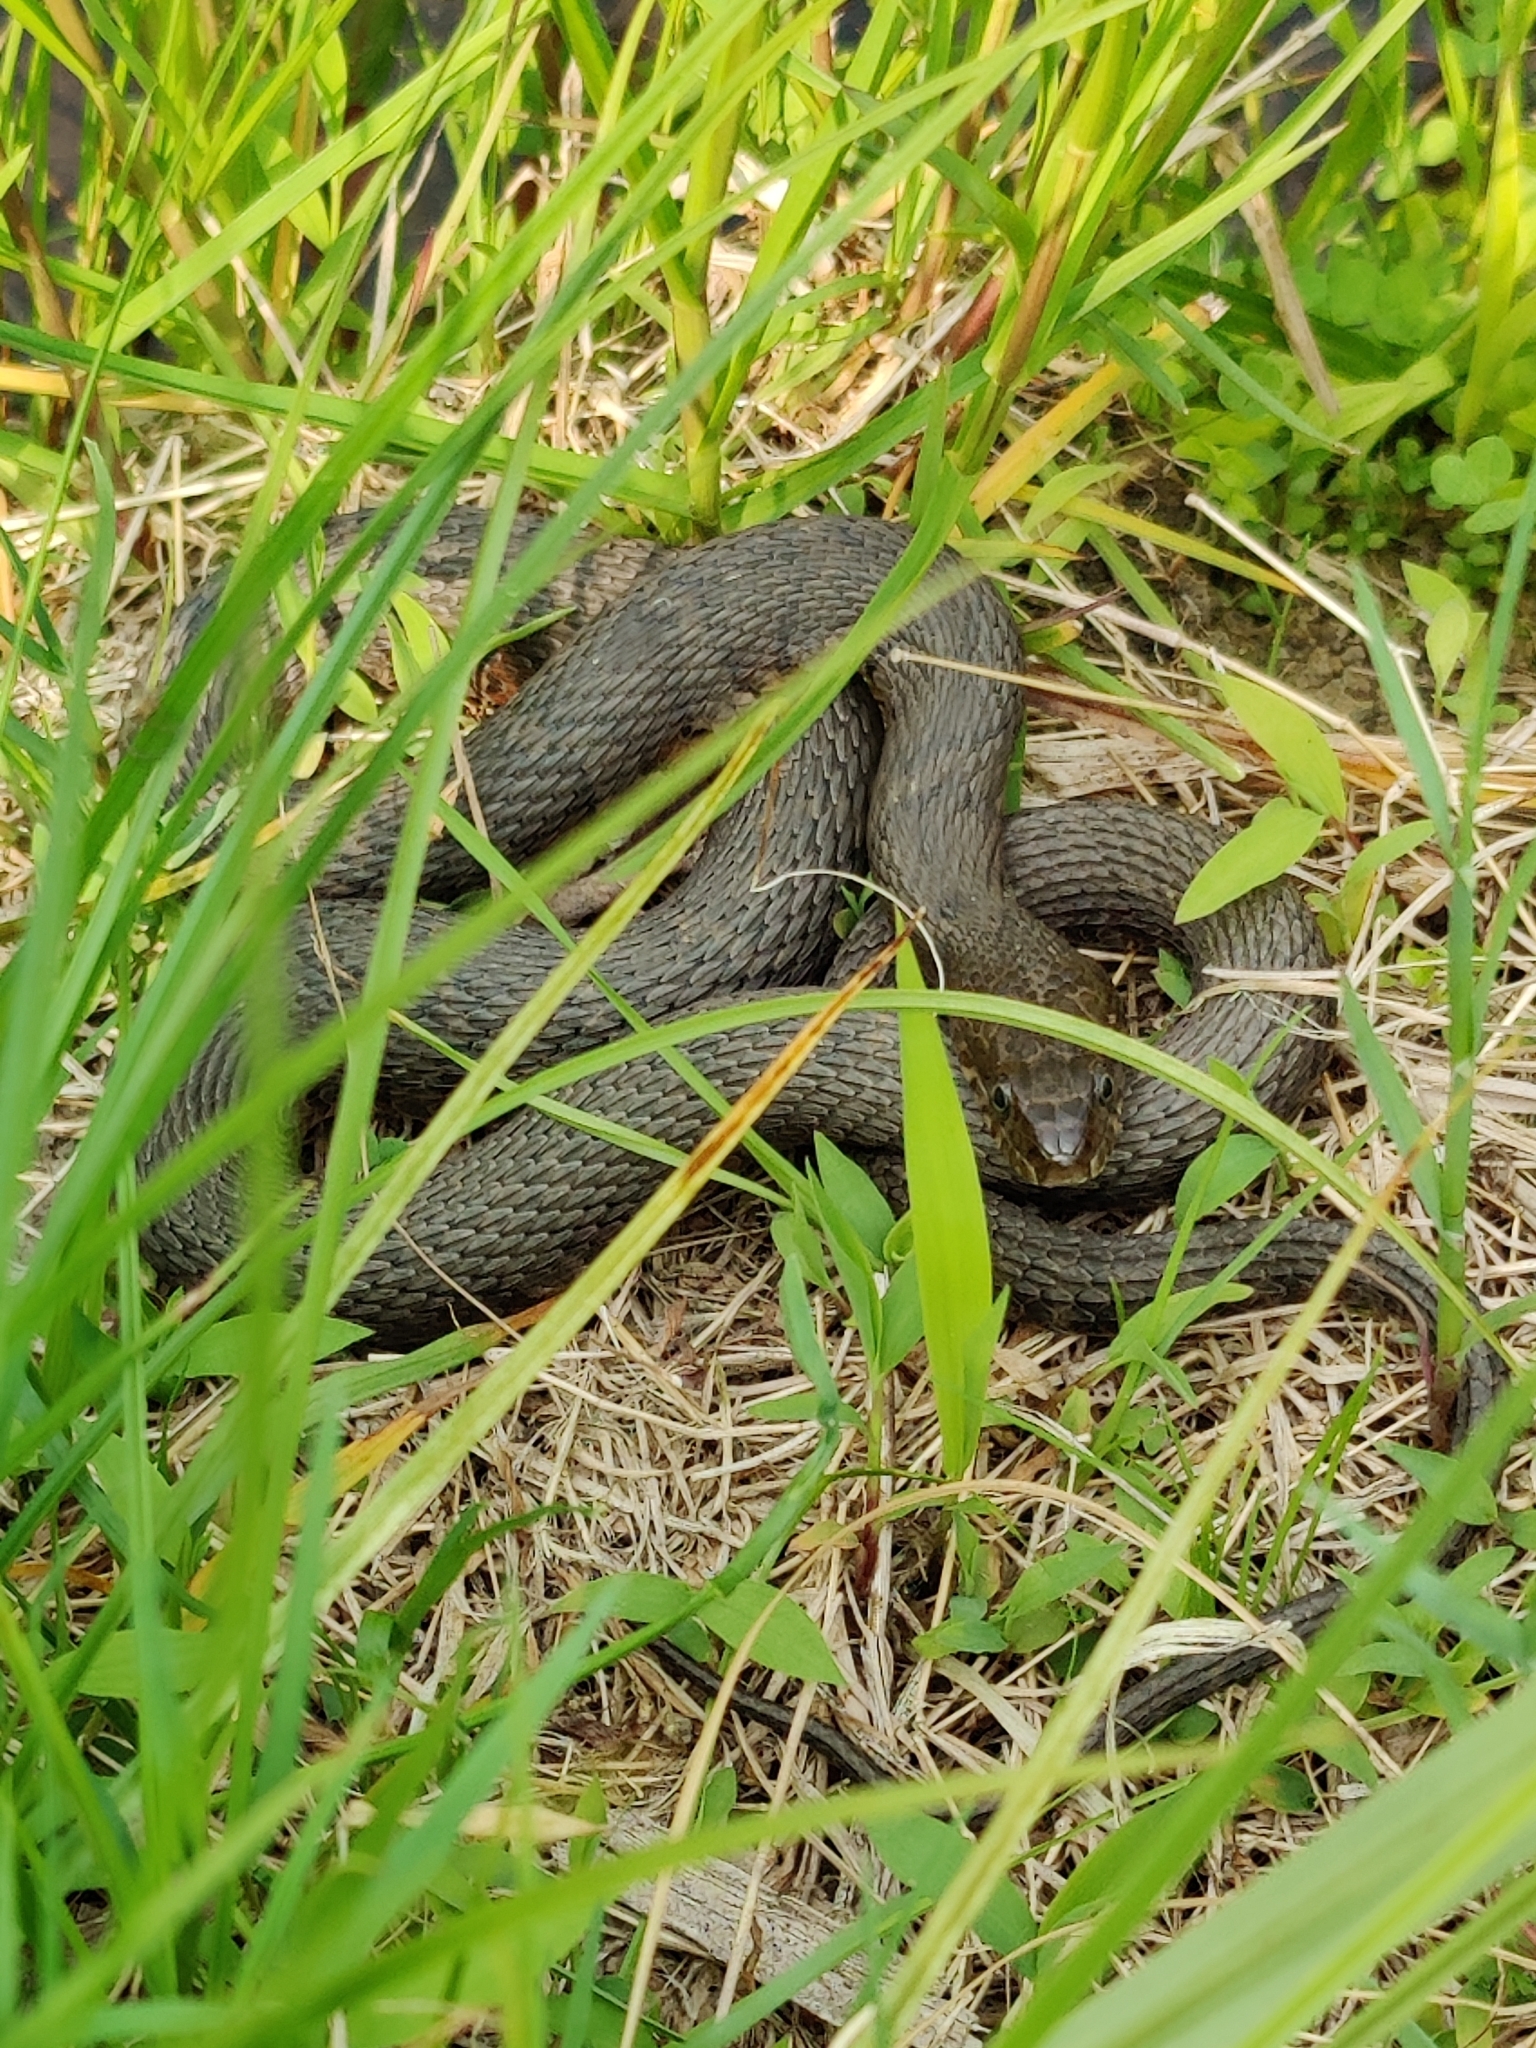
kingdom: Animalia
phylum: Chordata
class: Squamata
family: Colubridae
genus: Nerodia
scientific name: Nerodia sipedon
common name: Northern water snake
